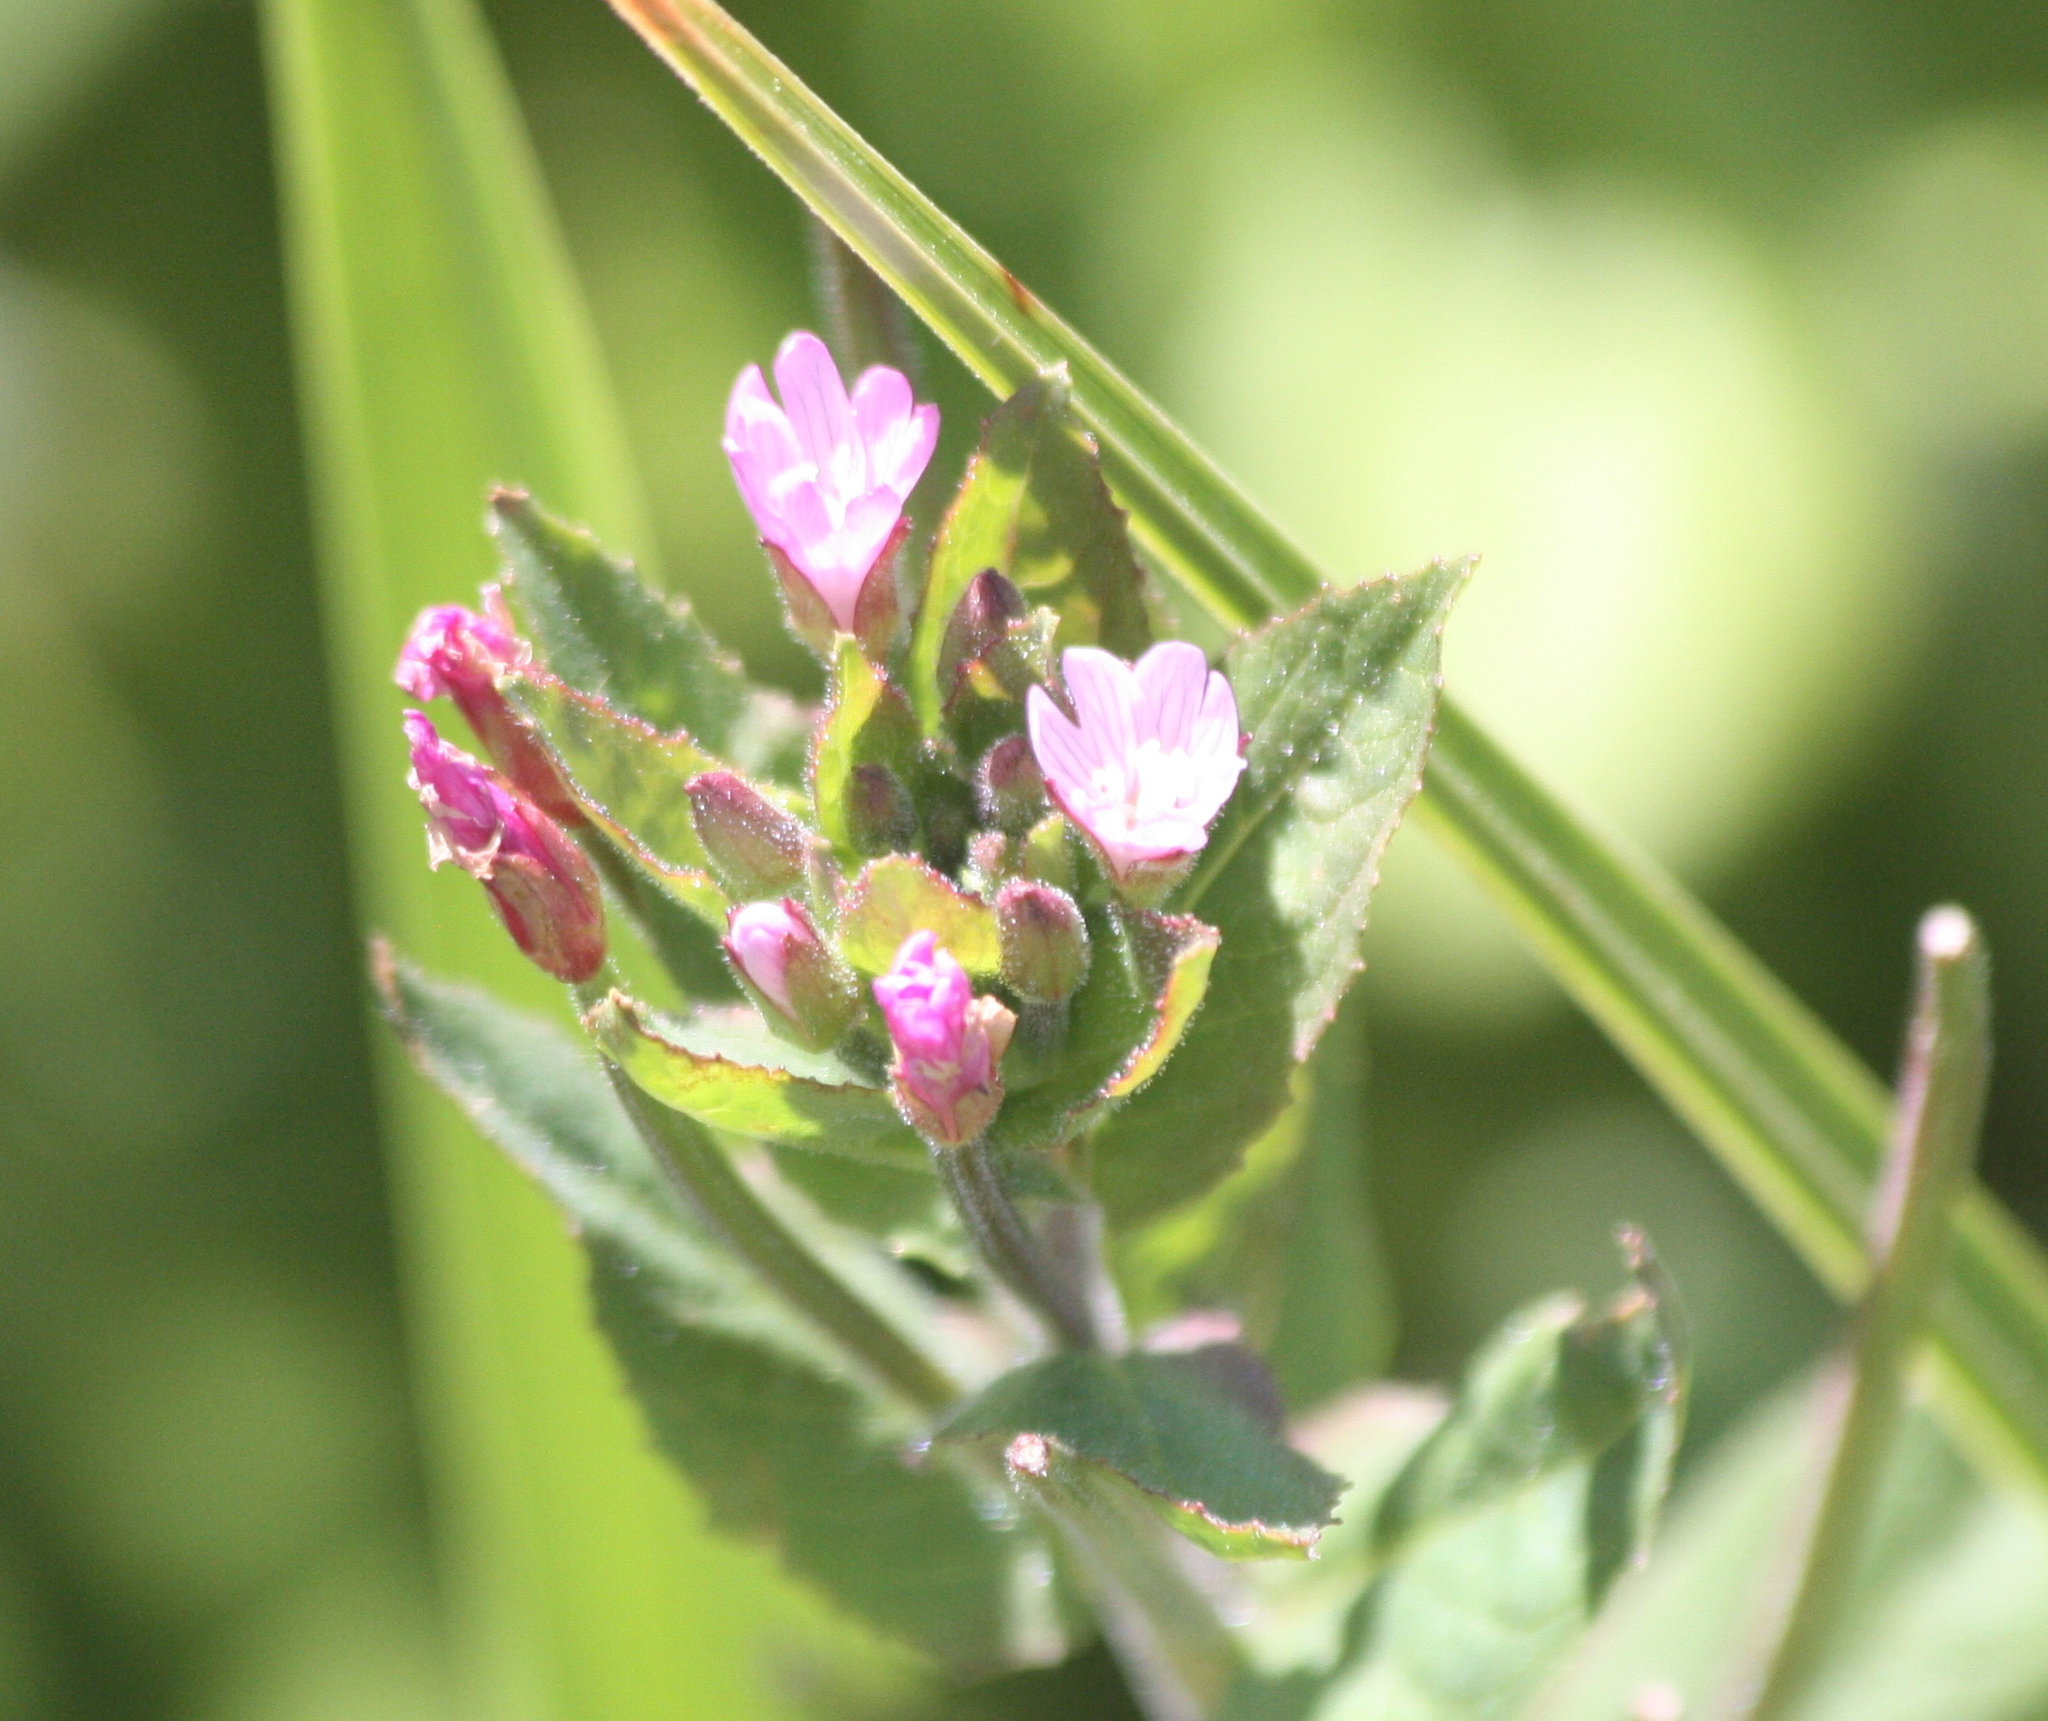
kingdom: Plantae
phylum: Tracheophyta
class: Magnoliopsida
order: Myrtales
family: Onagraceae
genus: Epilobium
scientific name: Epilobium ciliatum
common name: American willowherb
